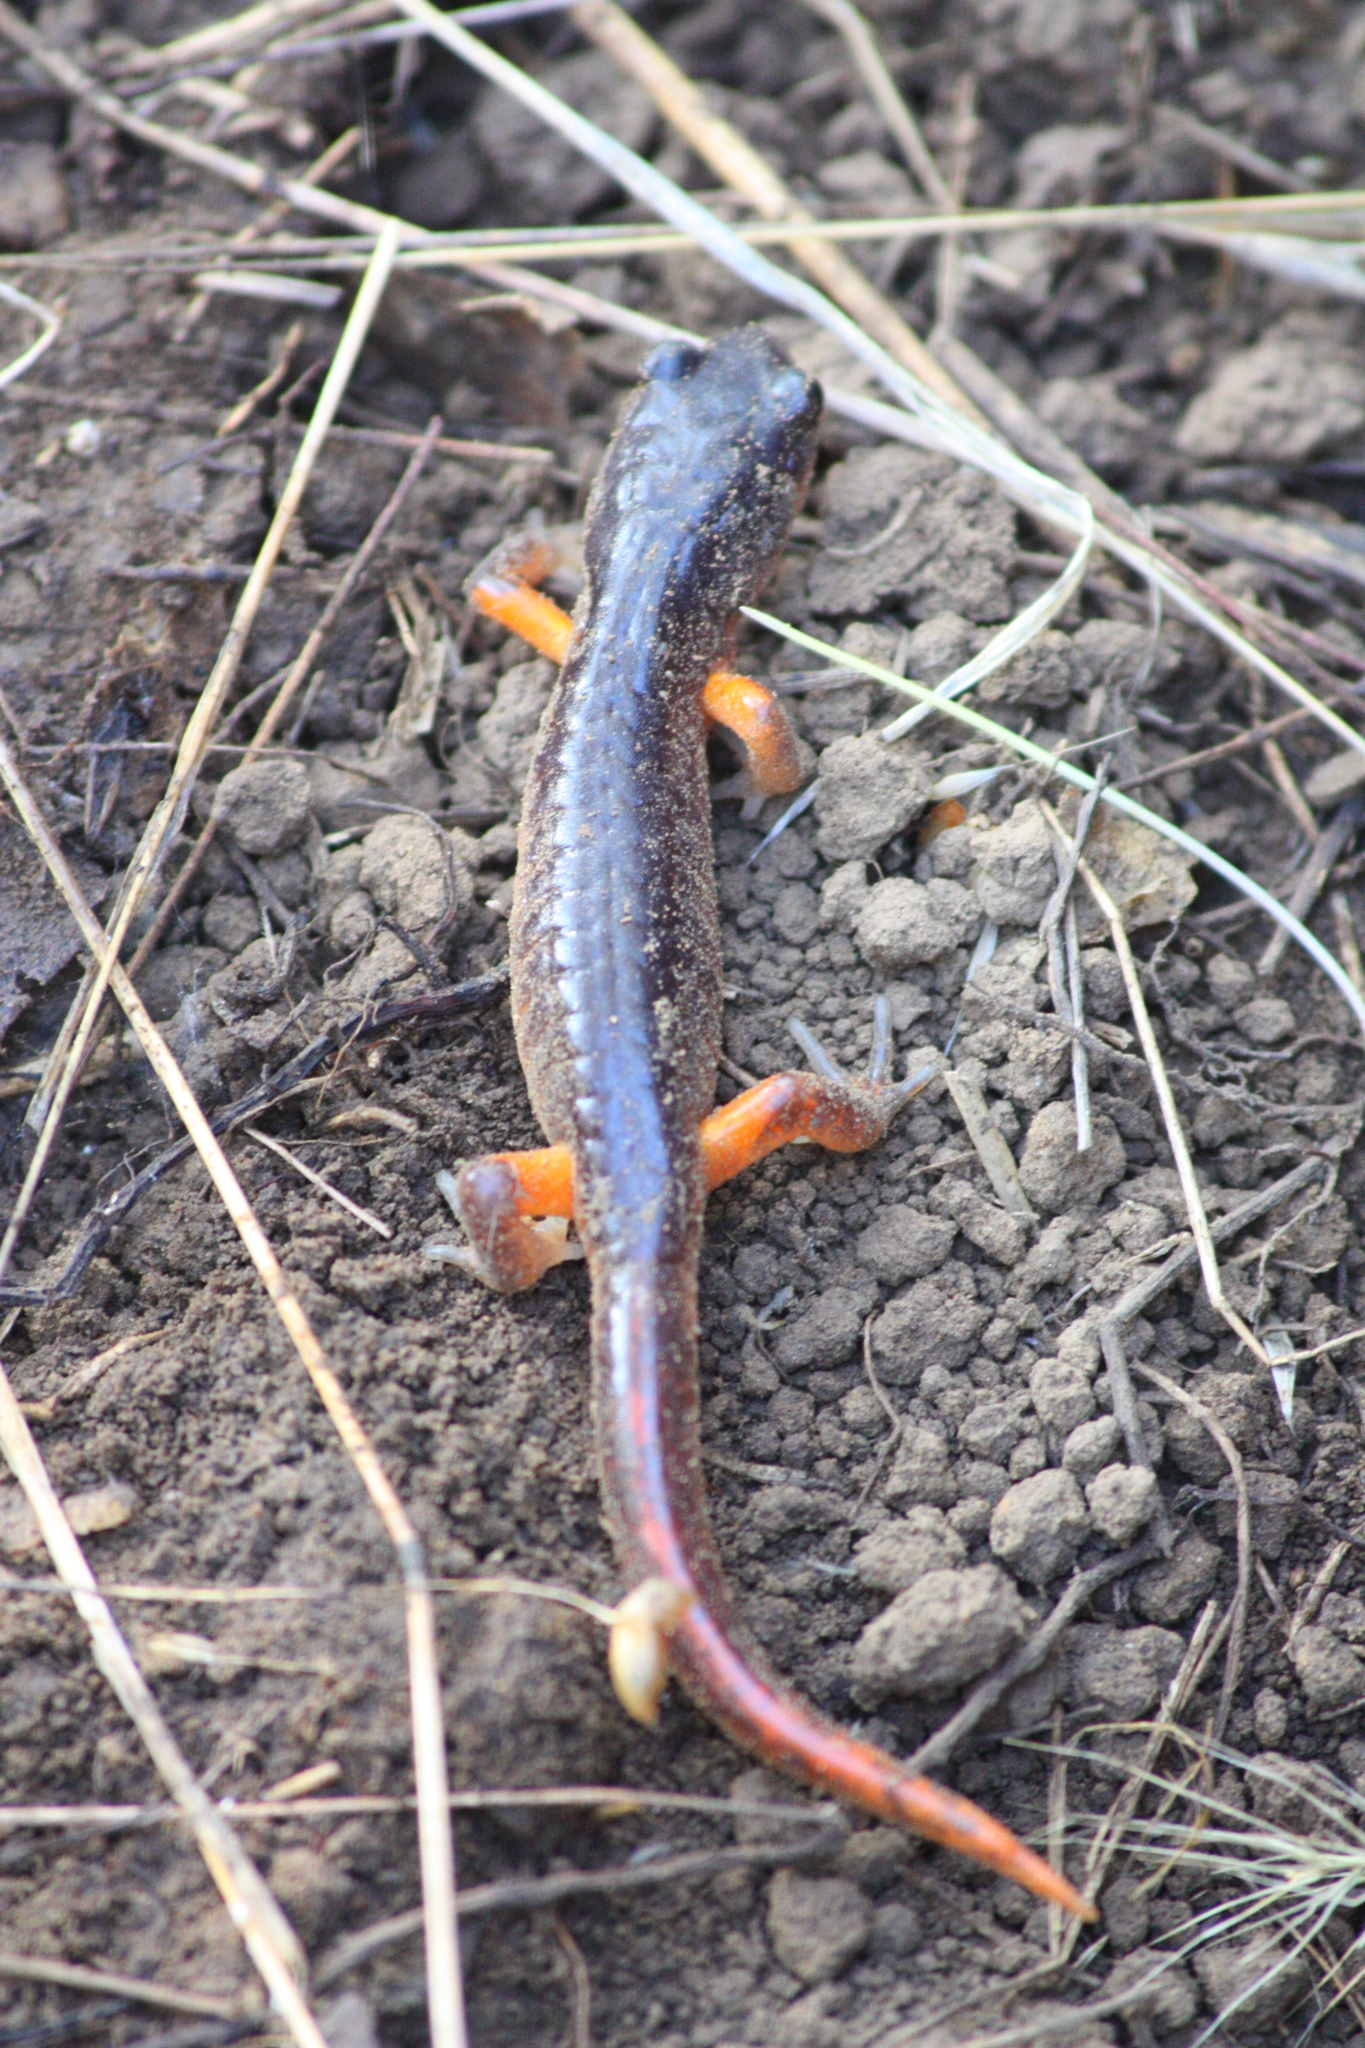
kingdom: Animalia
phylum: Chordata
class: Amphibia
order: Caudata
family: Plethodontidae
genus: Ensatina
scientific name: Ensatina eschscholtzii
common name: Ensatina
